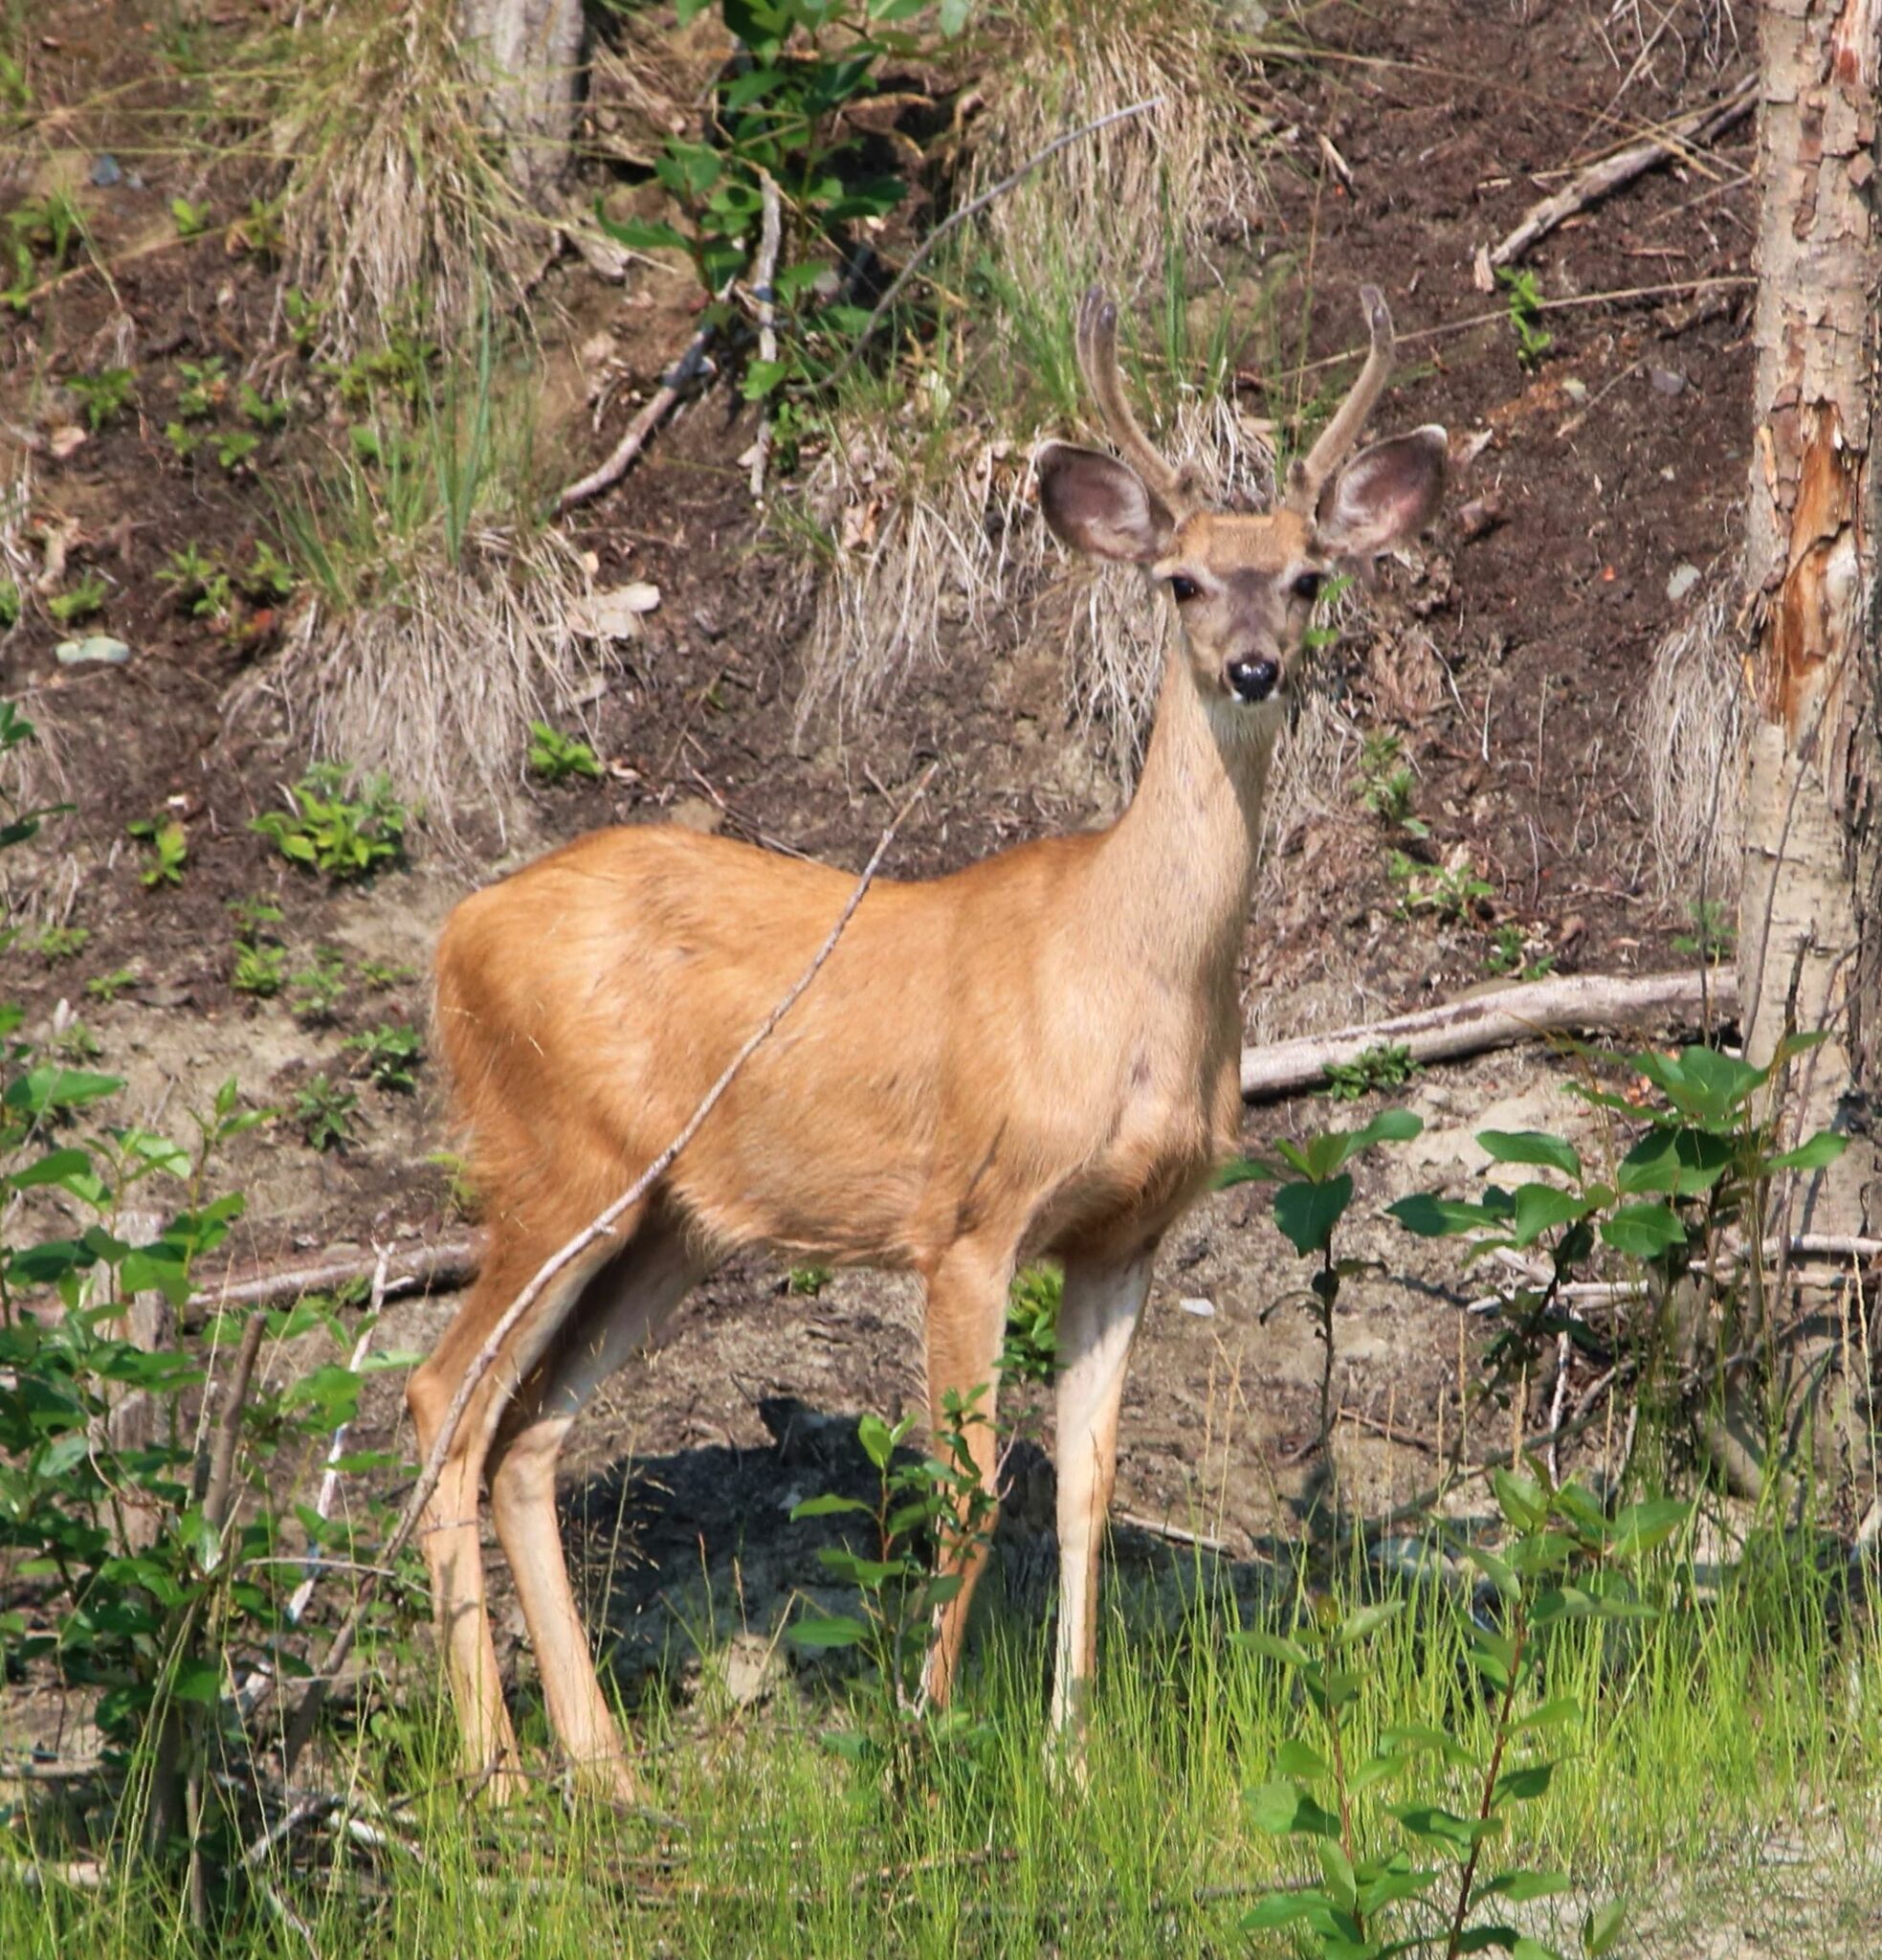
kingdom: Animalia
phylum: Chordata
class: Mammalia
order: Artiodactyla
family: Cervidae
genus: Odocoileus
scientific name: Odocoileus hemionus
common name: Mule deer
